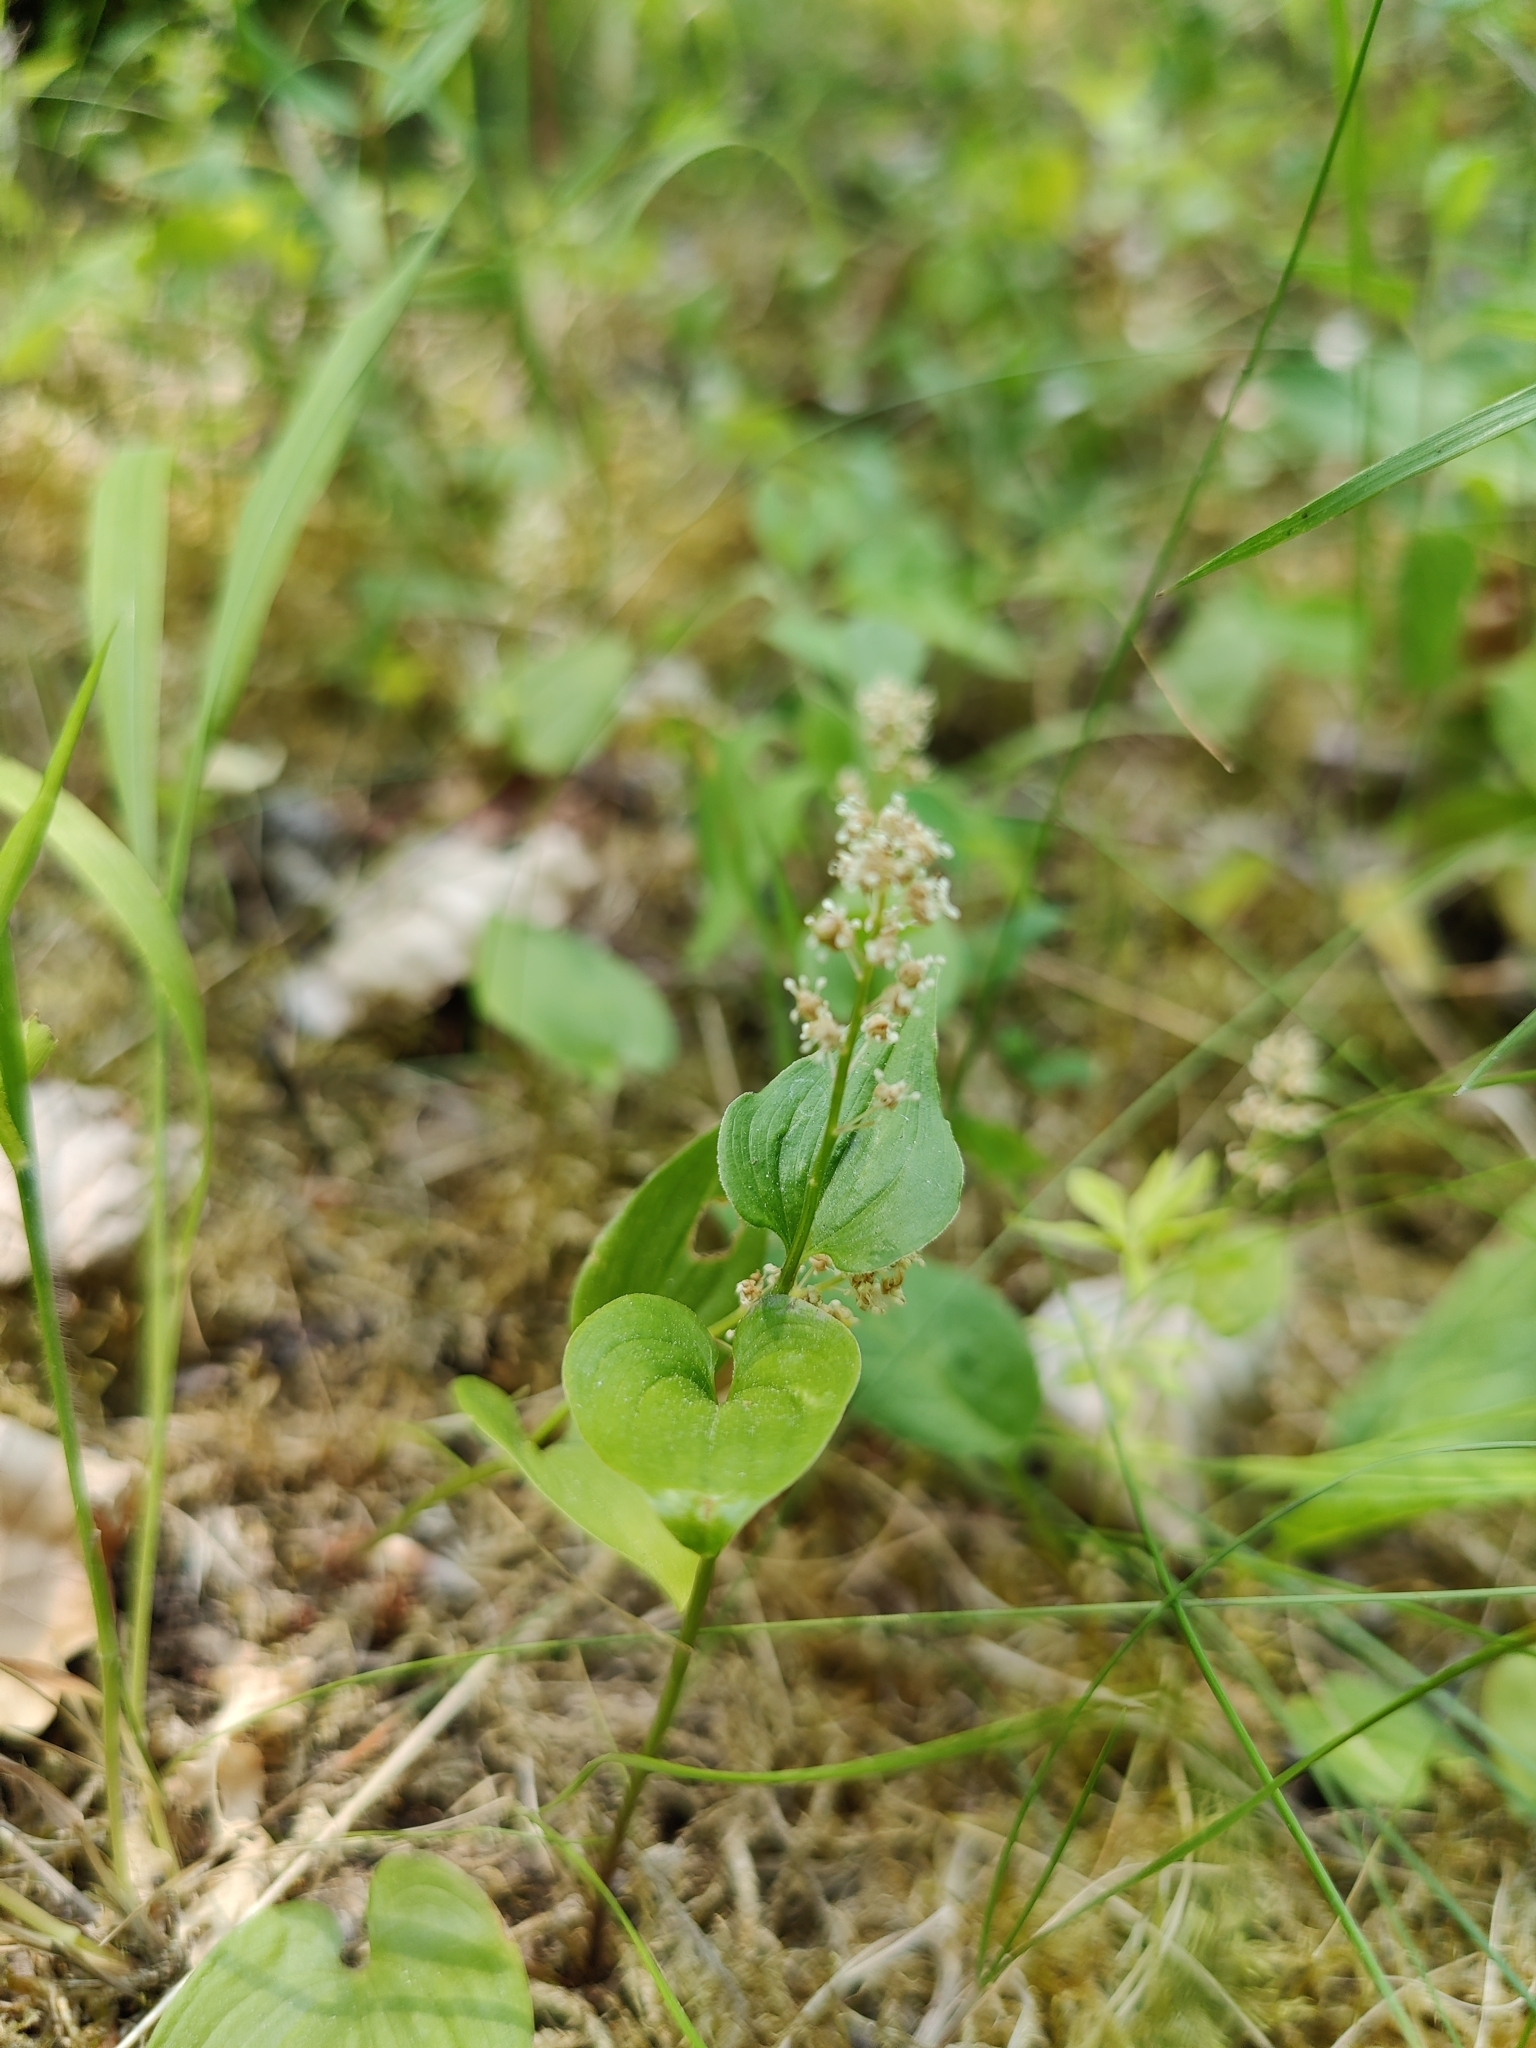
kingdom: Plantae
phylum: Tracheophyta
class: Liliopsida
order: Asparagales
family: Asparagaceae
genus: Maianthemum
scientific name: Maianthemum bifolium
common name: May lily
